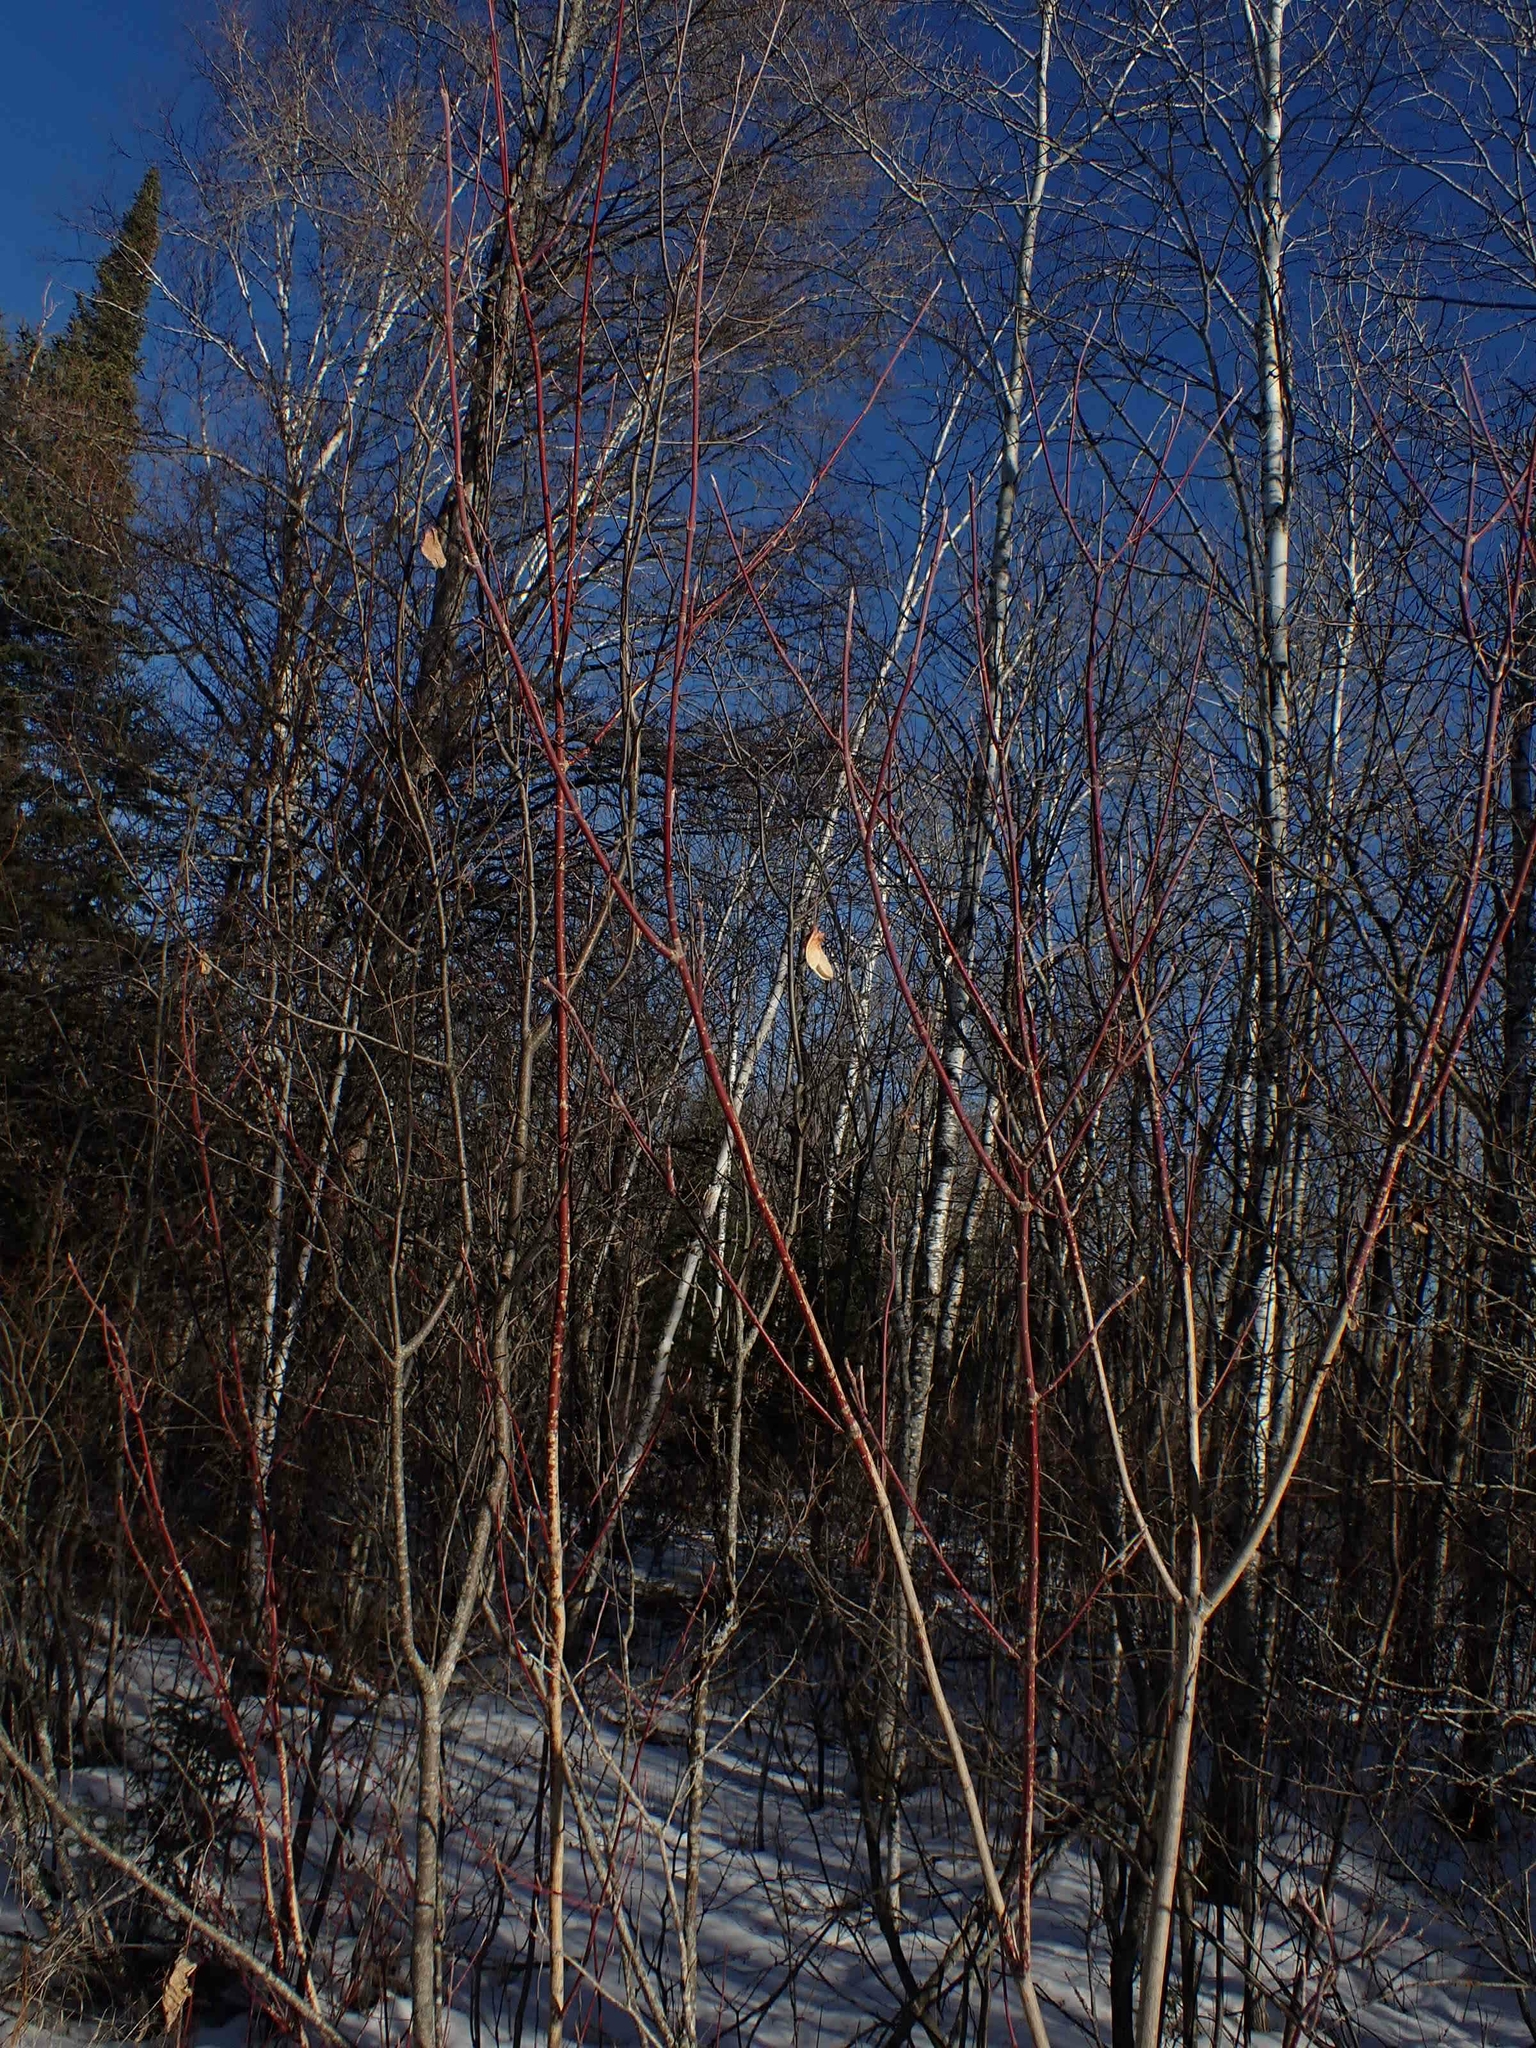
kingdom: Plantae
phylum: Tracheophyta
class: Magnoliopsida
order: Sapindales
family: Sapindaceae
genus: Acer
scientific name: Acer spicatum
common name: Mountain maple
